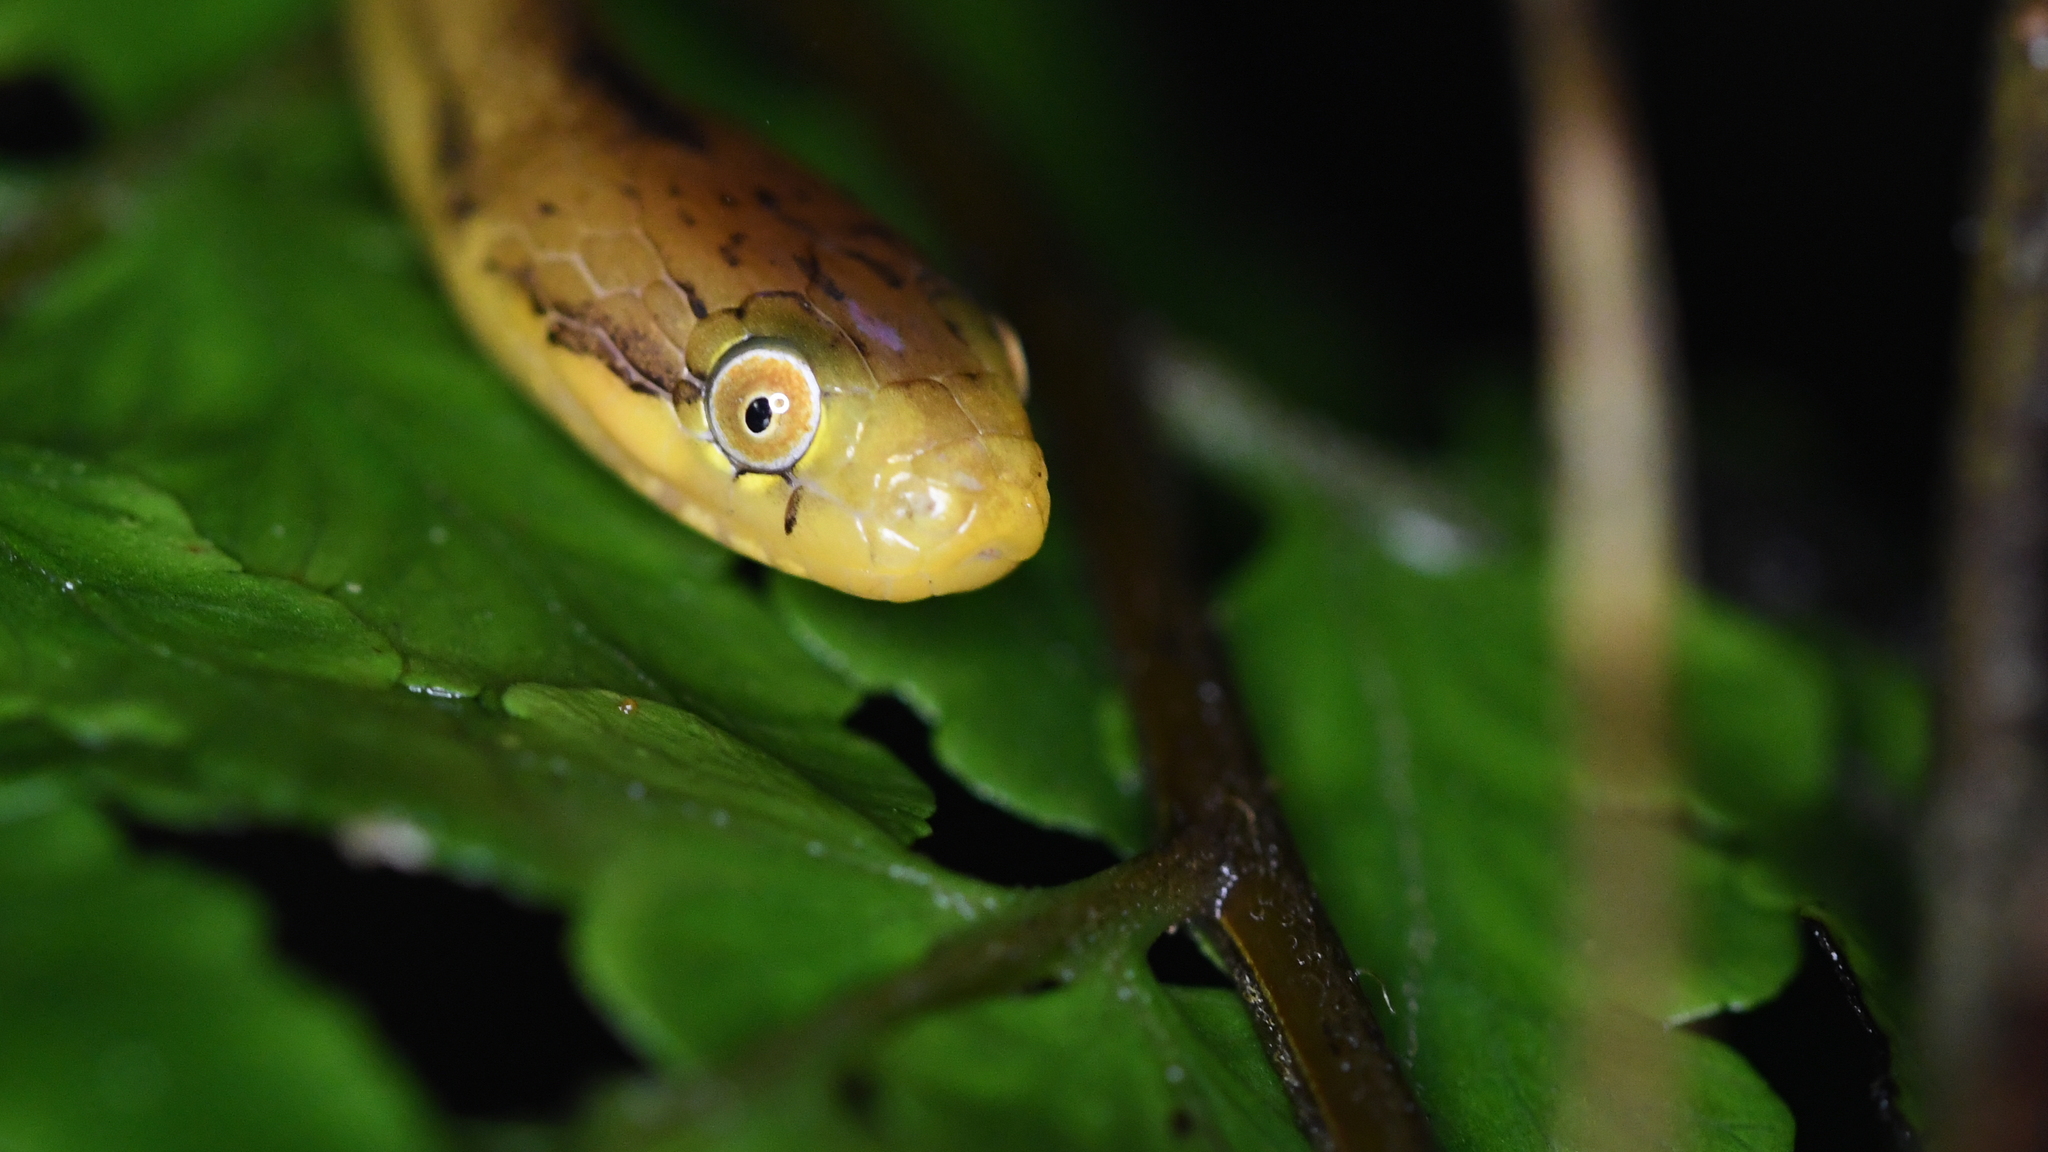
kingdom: Animalia
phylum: Chordata
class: Squamata
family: Pseudoxyrhophiidae
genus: Compsophis
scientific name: Compsophis laphystius
